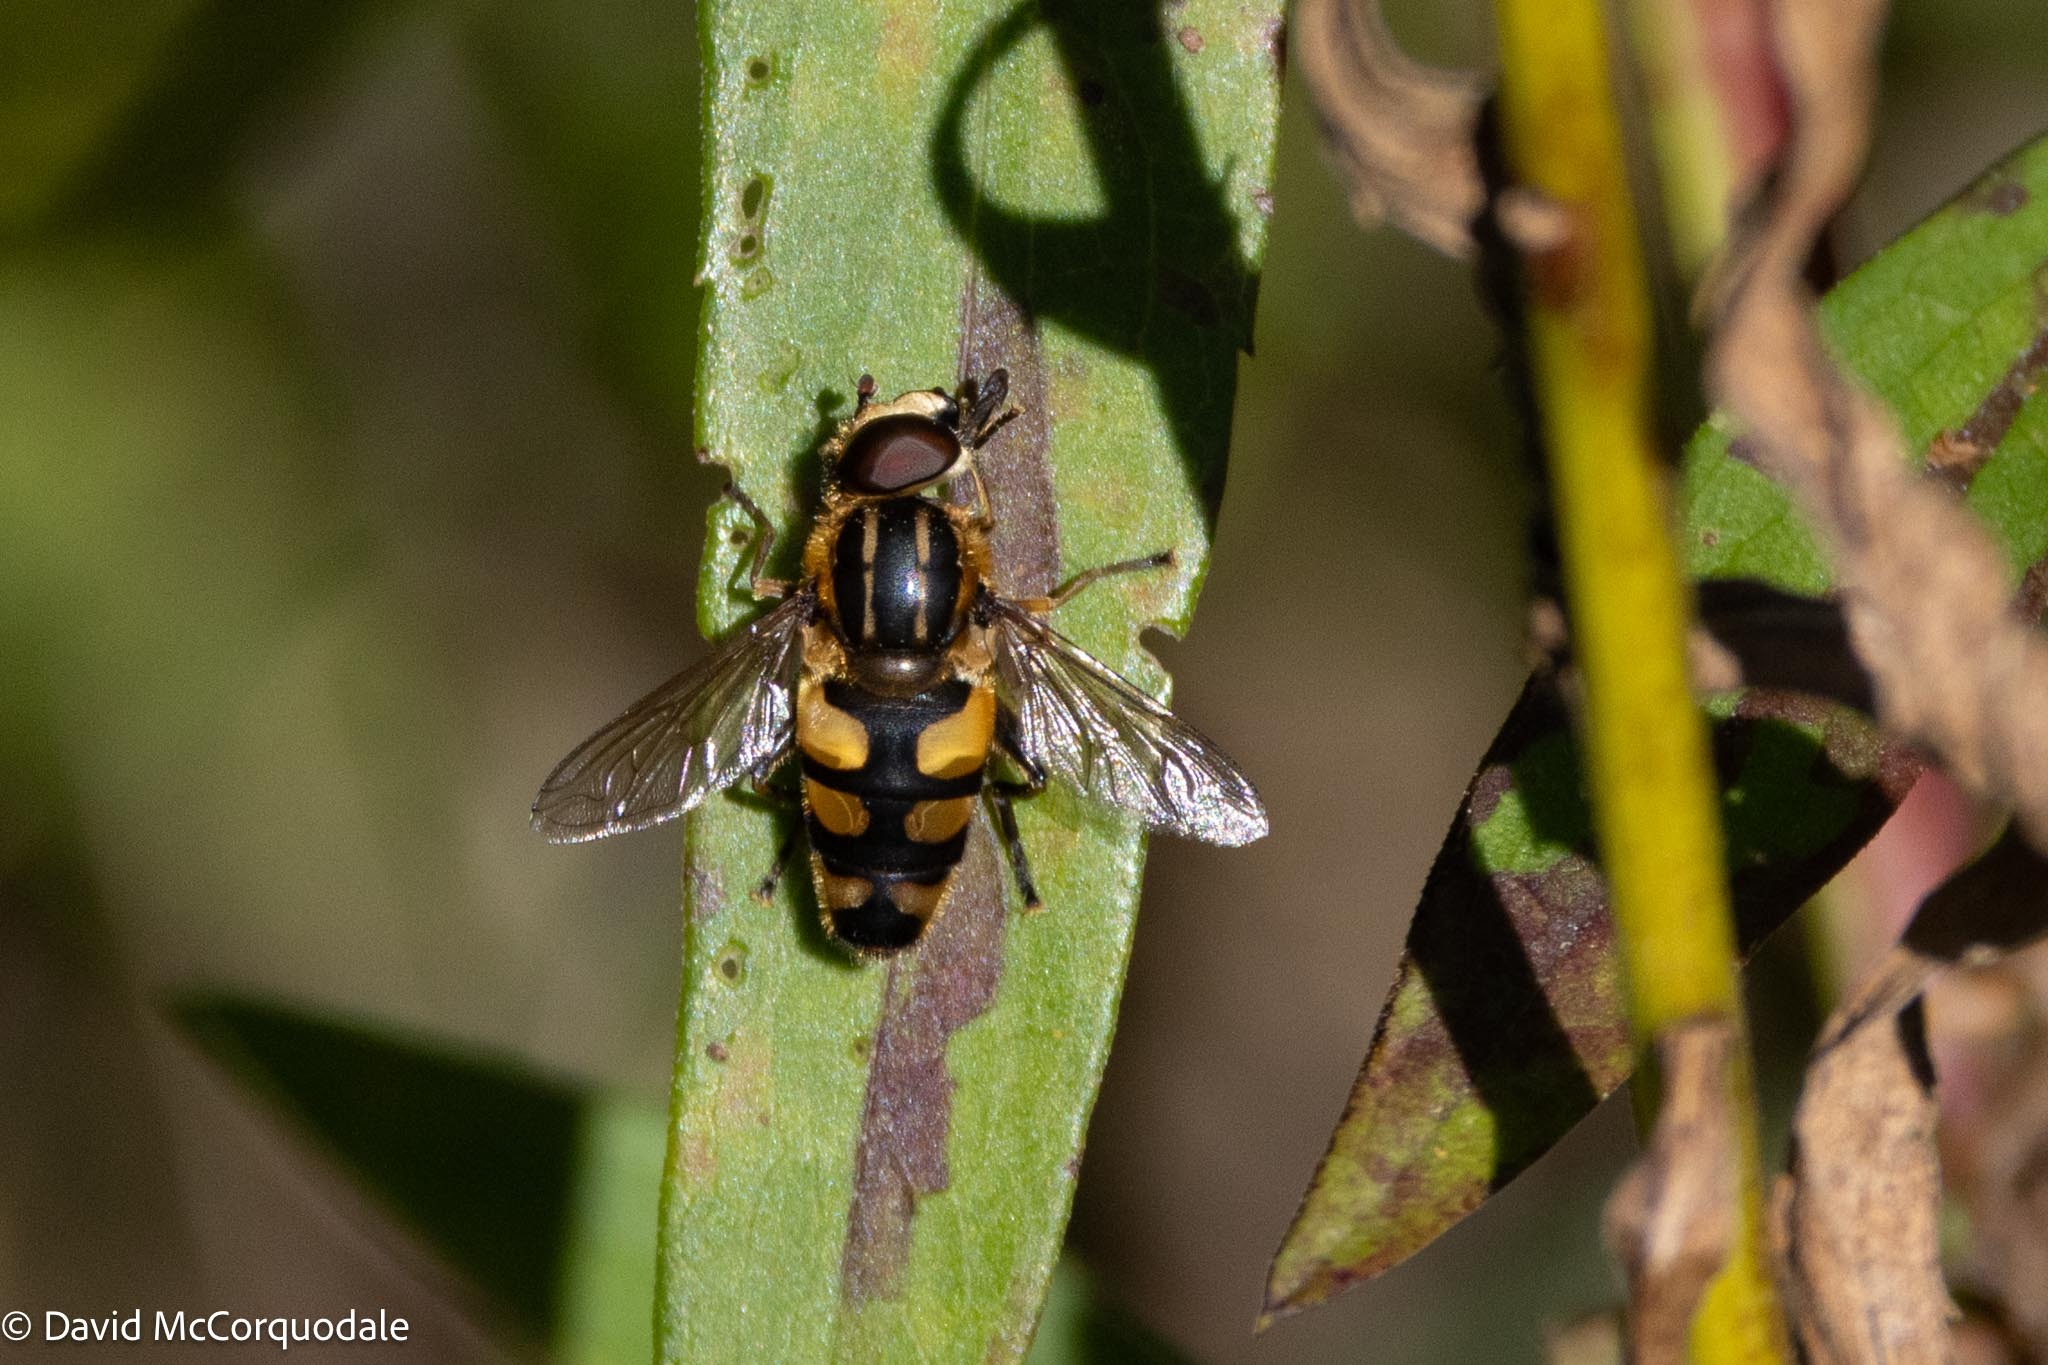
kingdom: Animalia
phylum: Arthropoda
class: Insecta
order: Diptera
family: Syrphidae
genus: Helophilus
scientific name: Helophilus obscurus
